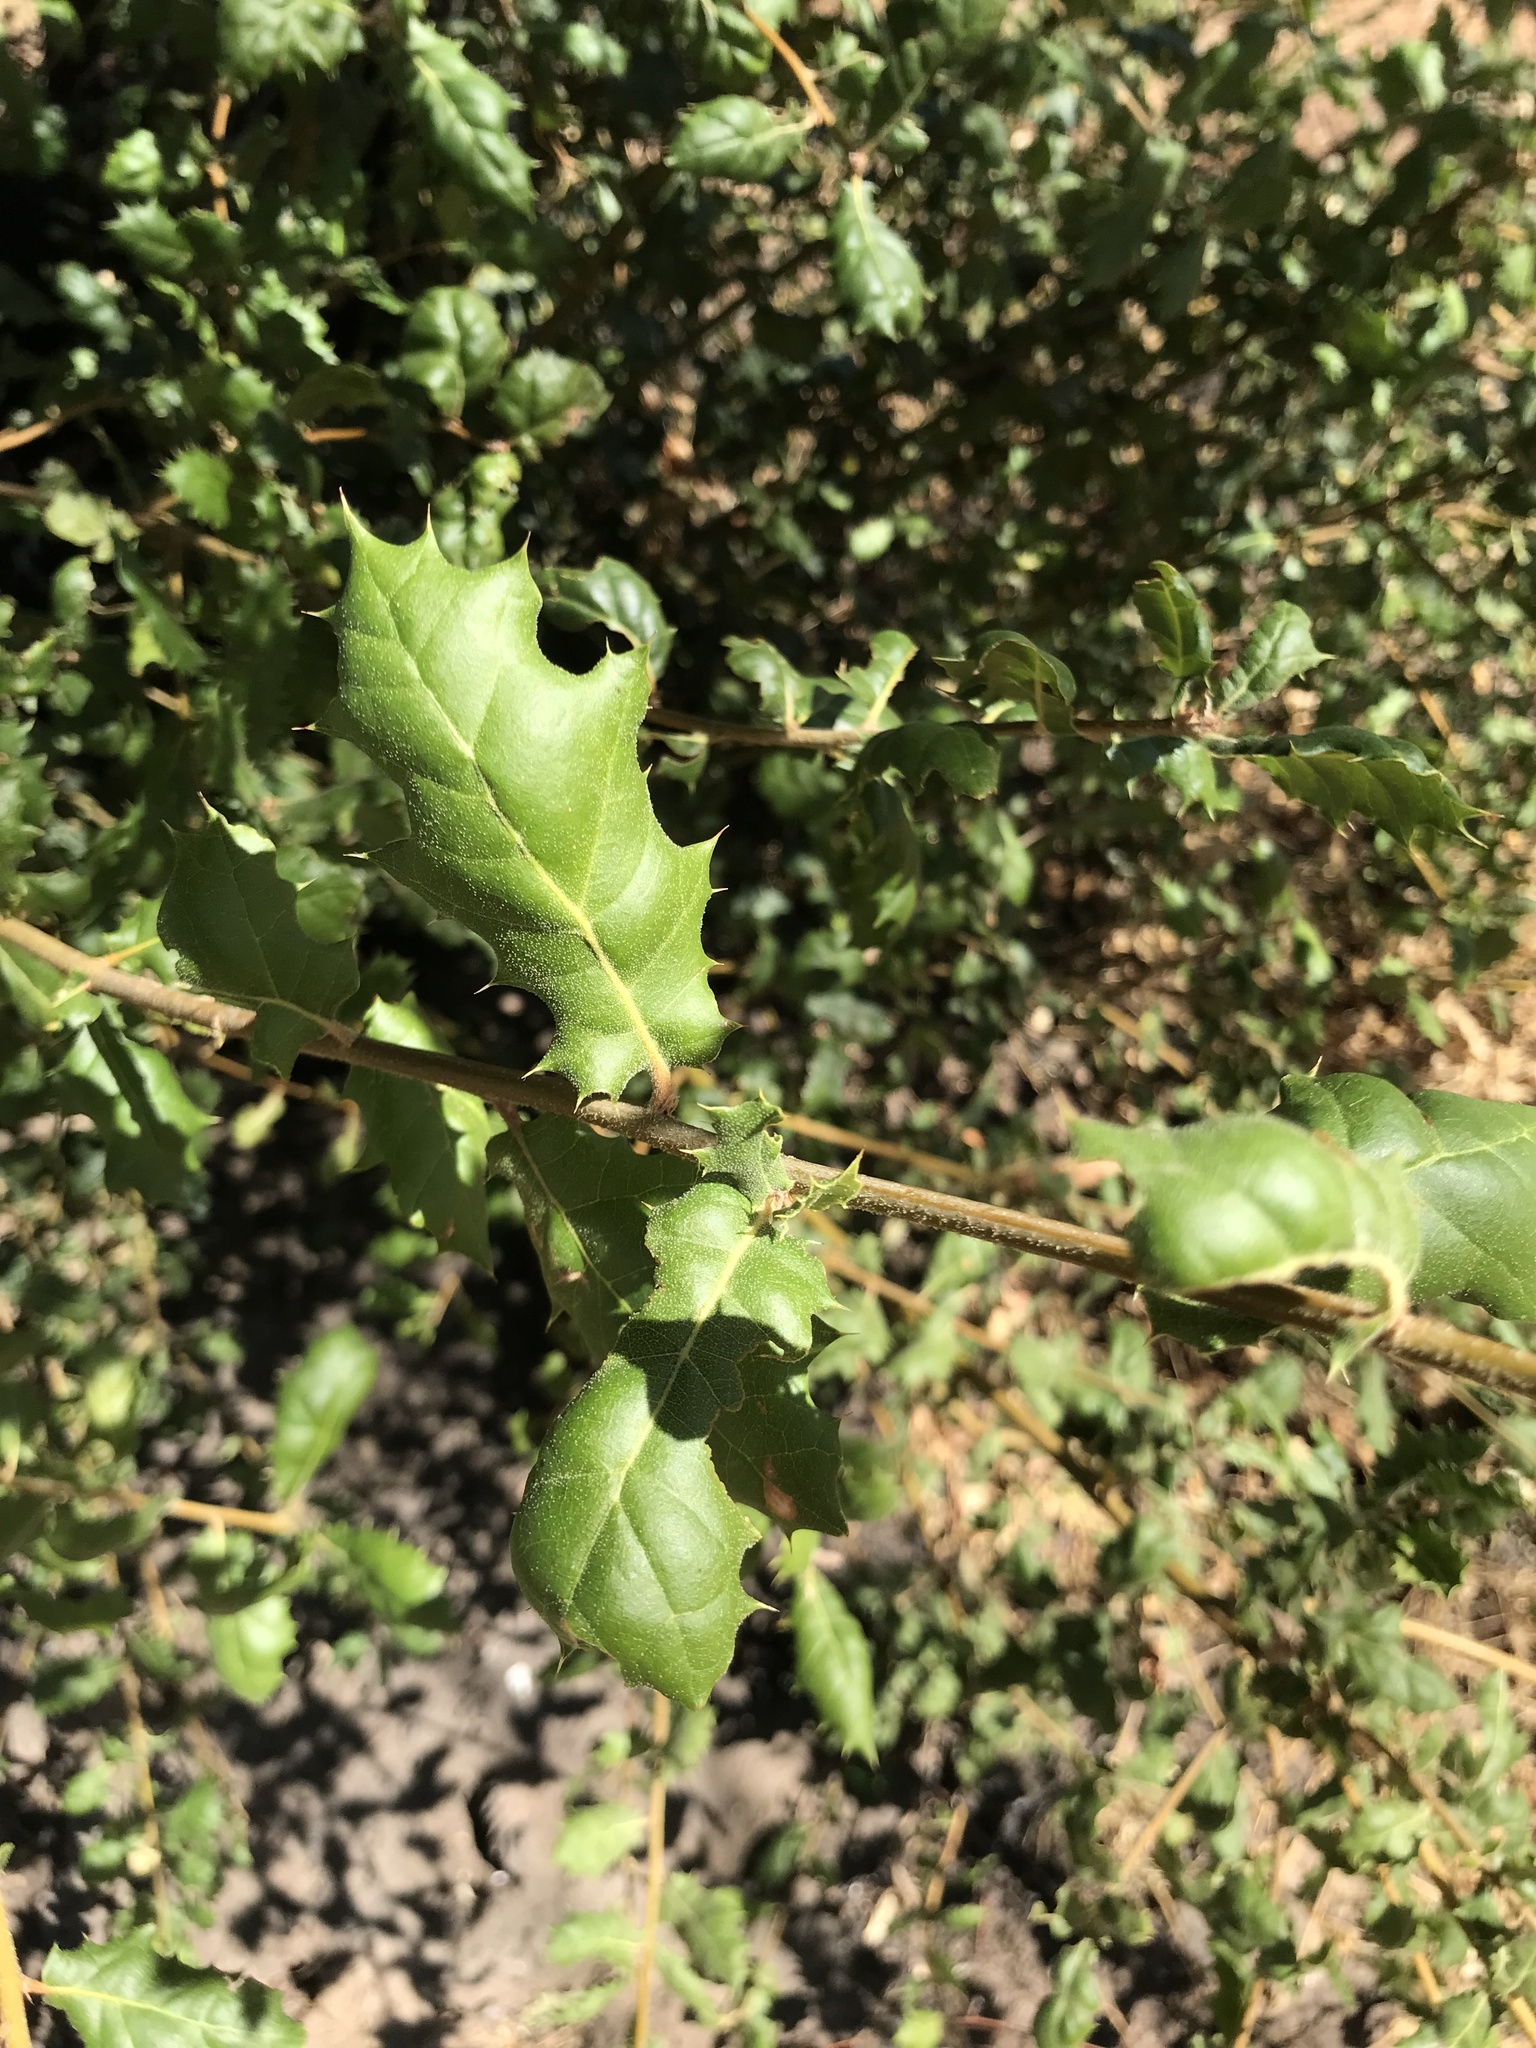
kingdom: Plantae
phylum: Tracheophyta
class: Magnoliopsida
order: Fagales
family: Fagaceae
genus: Quercus
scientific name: Quercus agrifolia
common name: California live oak
